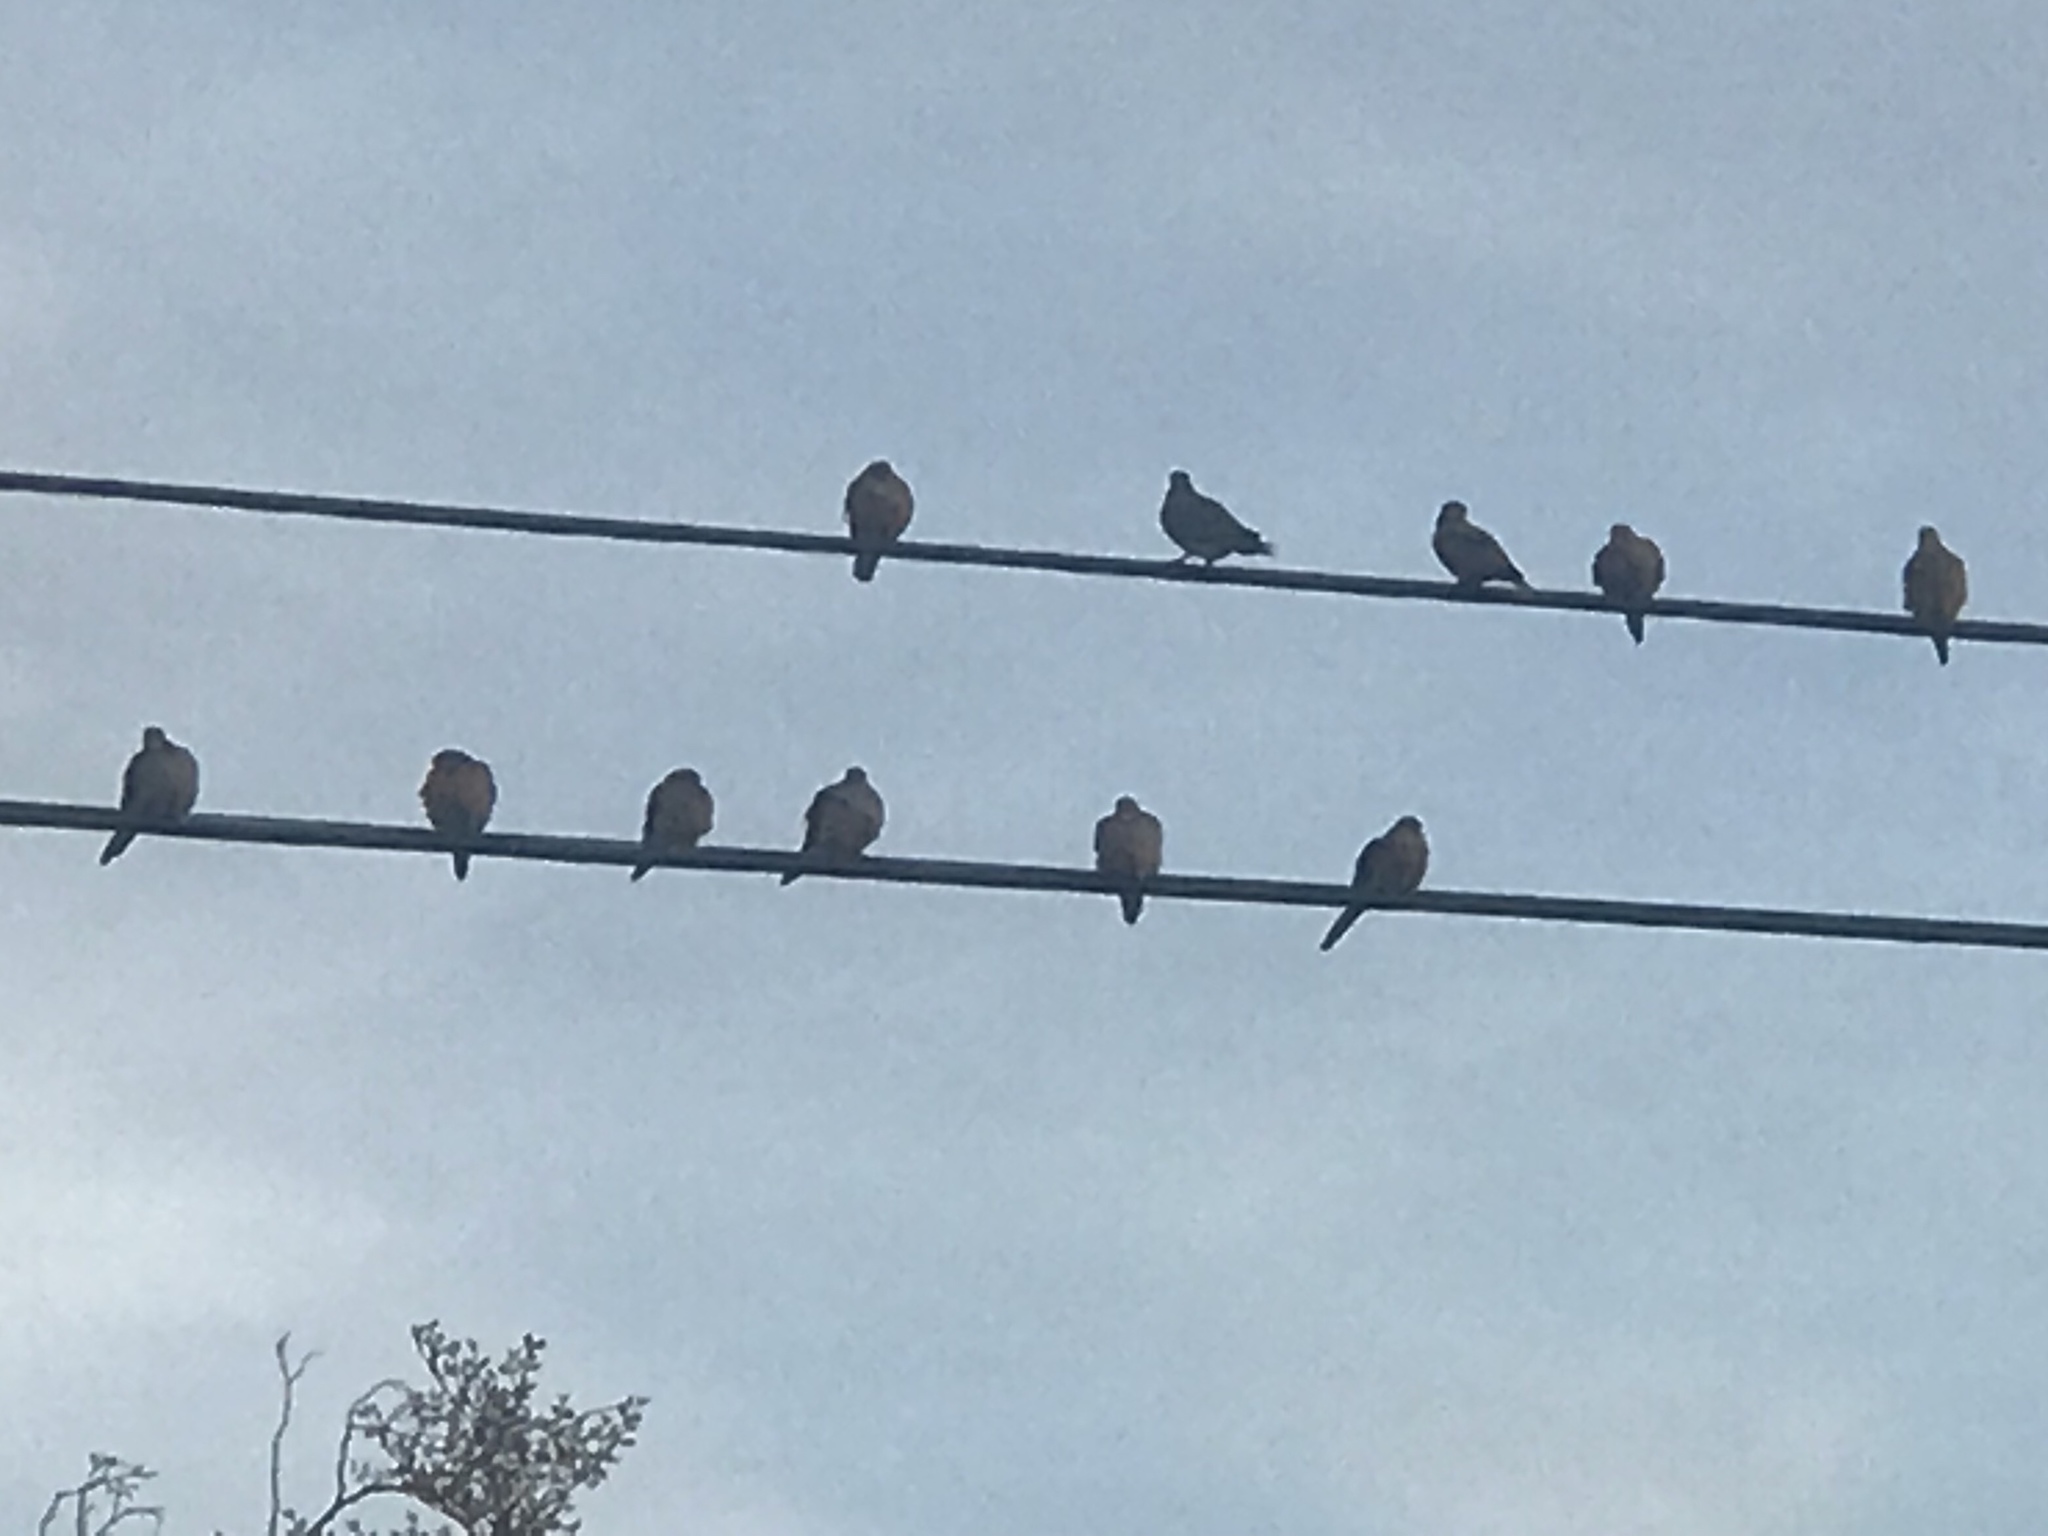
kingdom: Animalia
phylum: Chordata
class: Aves
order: Columbiformes
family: Columbidae
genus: Zenaida
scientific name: Zenaida macroura
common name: Mourning dove
